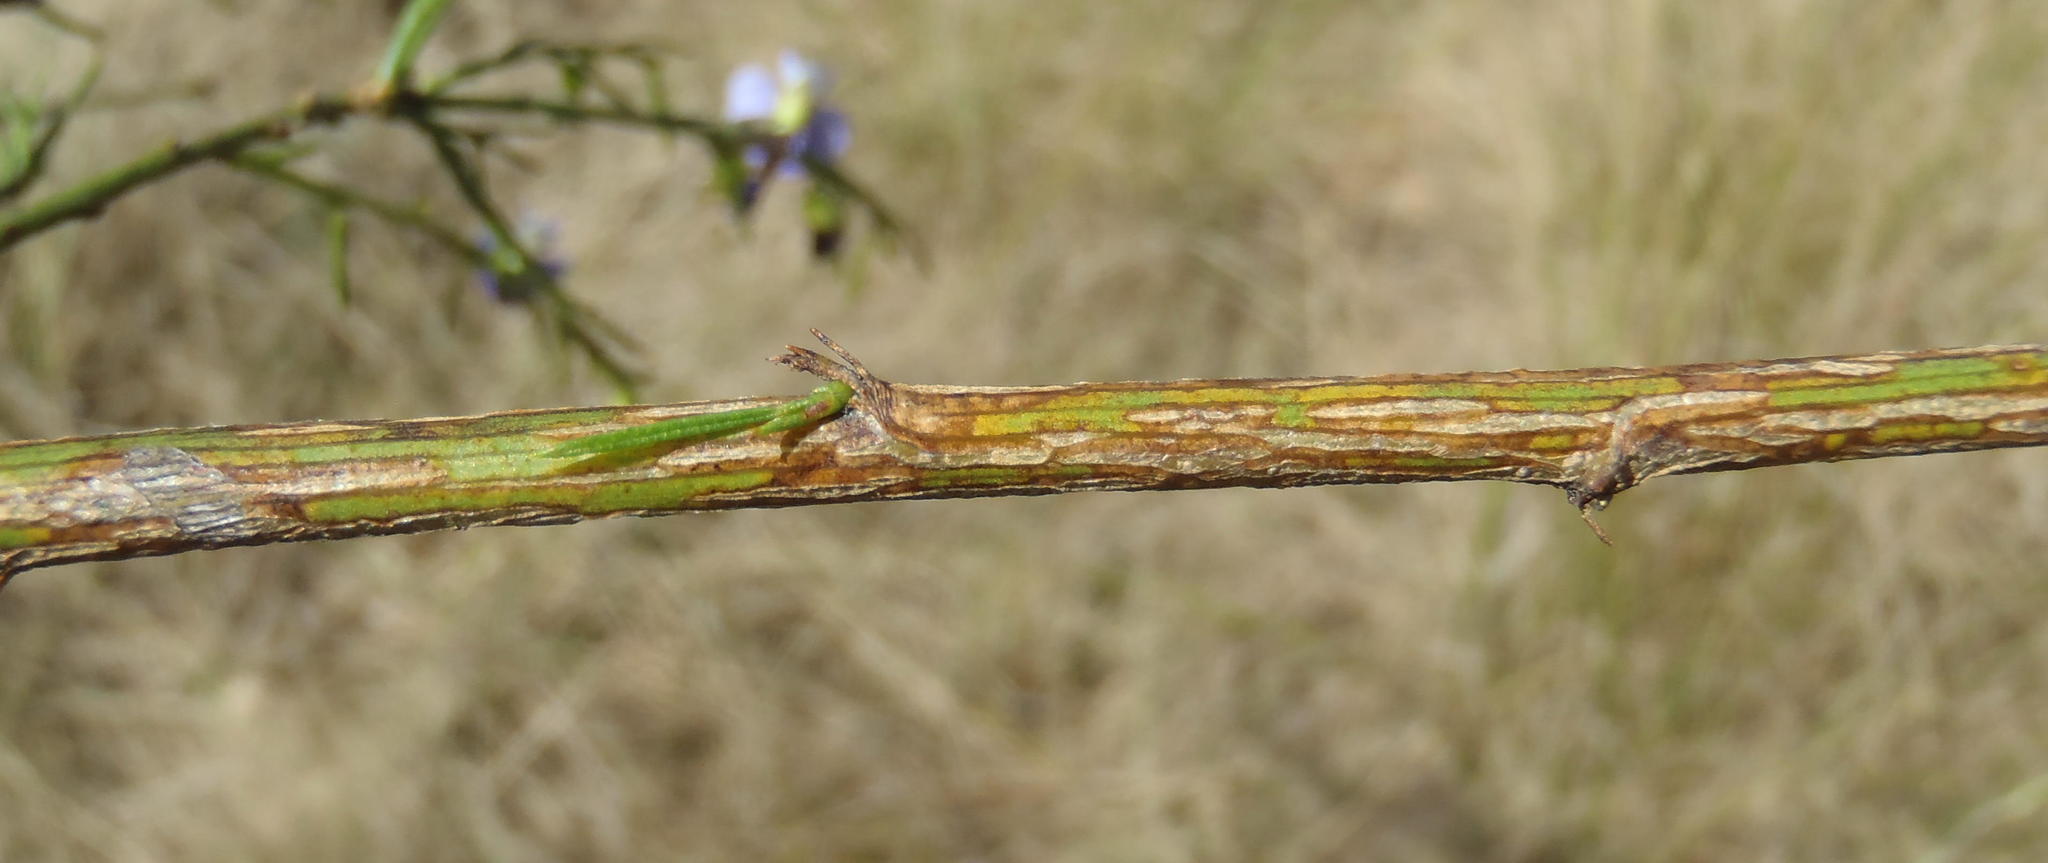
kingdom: Plantae
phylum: Tracheophyta
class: Magnoliopsida
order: Fabales
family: Fabaceae
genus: Psoralea
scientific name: Psoralea sordida
